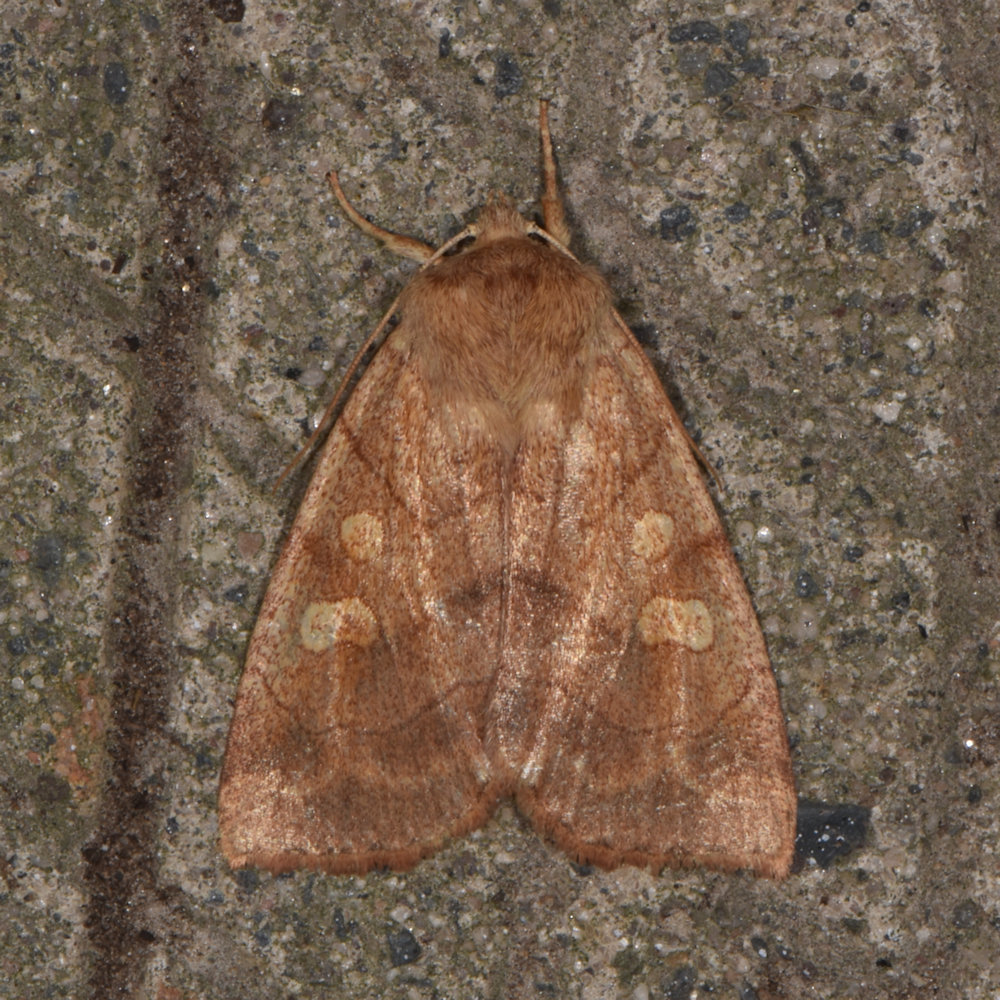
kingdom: Animalia
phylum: Arthropoda
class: Insecta
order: Lepidoptera
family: Noctuidae
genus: Enargia
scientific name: Enargia decolor
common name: Aspen twoleaf tier moth
